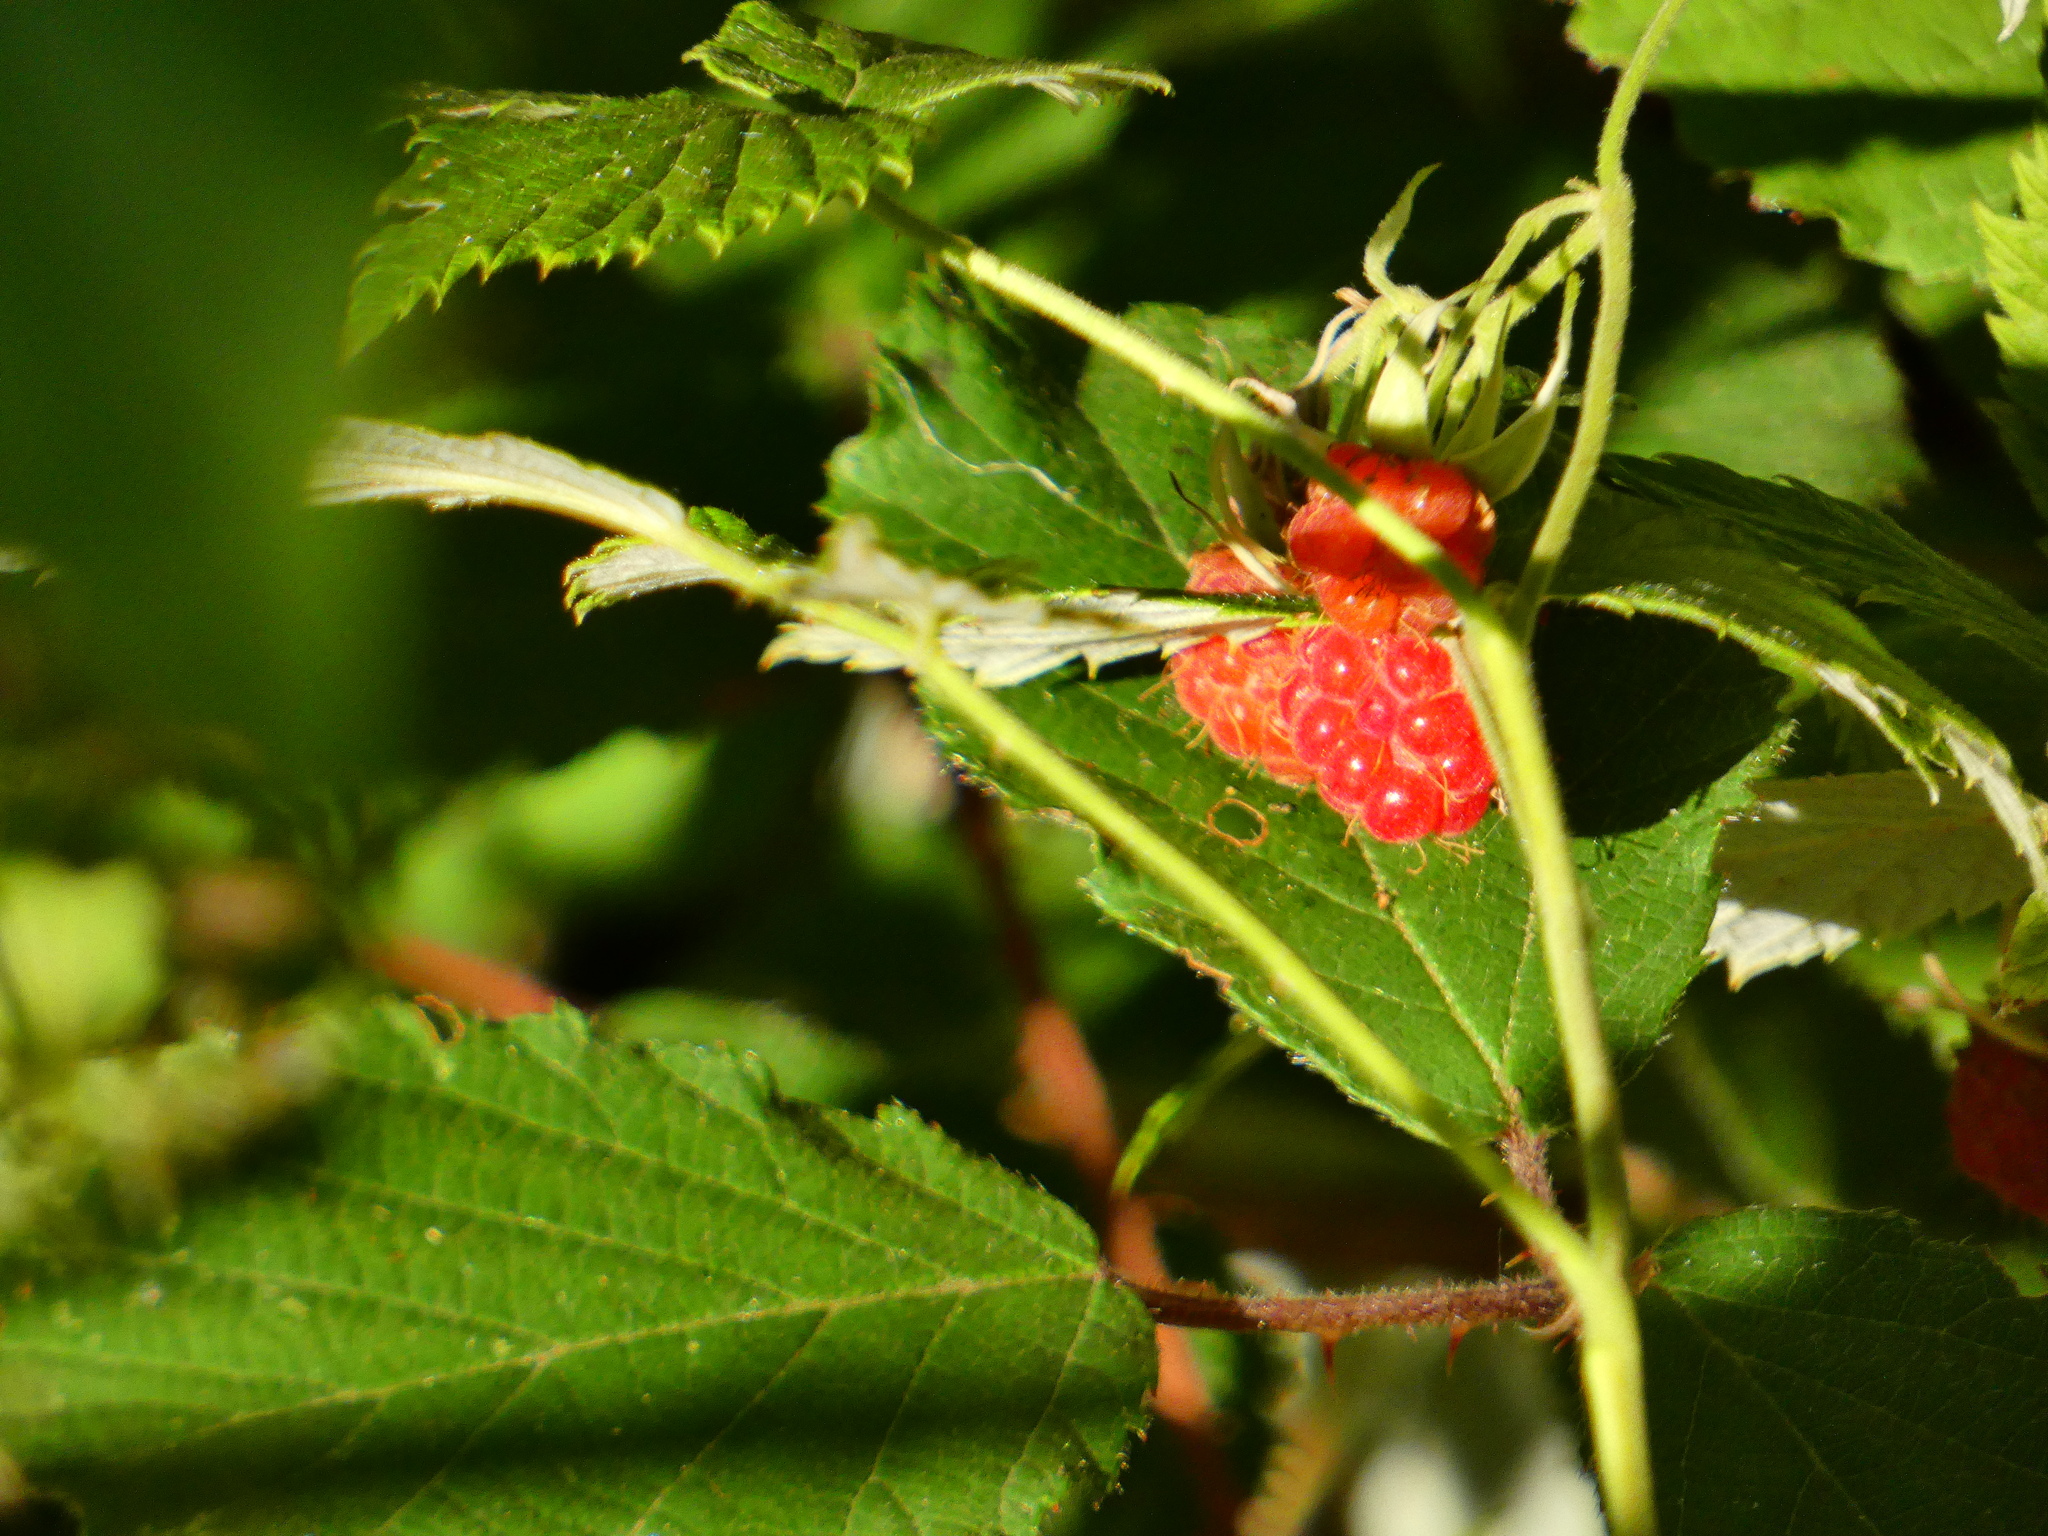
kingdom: Plantae
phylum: Tracheophyta
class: Magnoliopsida
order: Rosales
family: Rosaceae
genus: Rubus
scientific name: Rubus idaeus
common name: Raspberry
